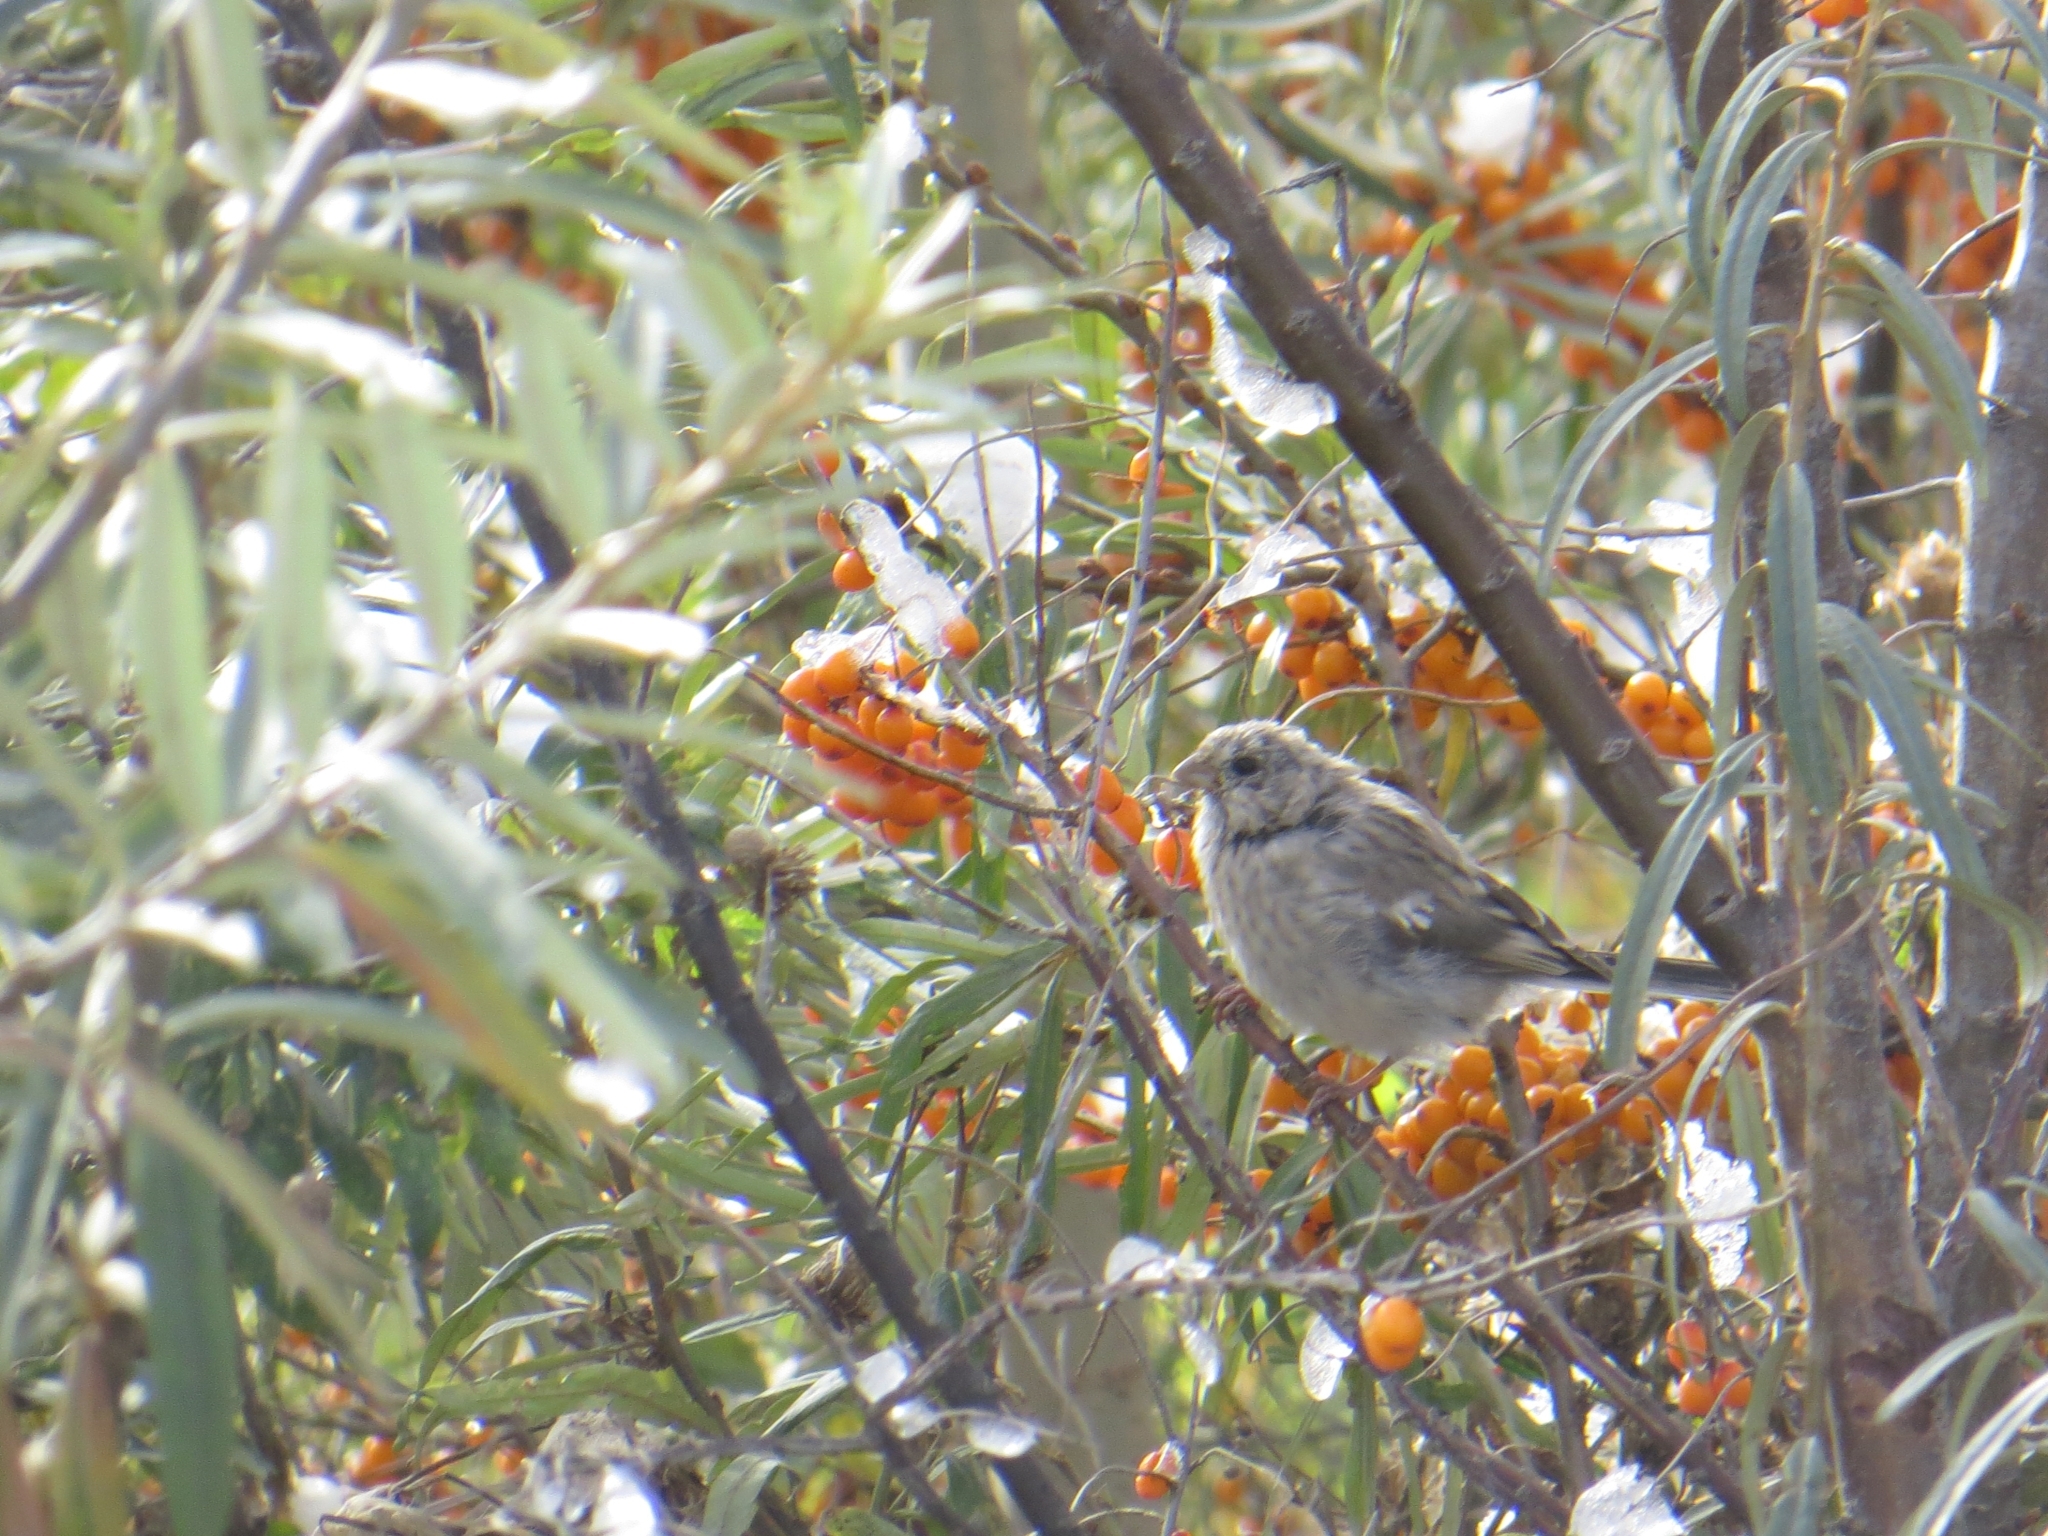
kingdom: Animalia
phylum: Chordata
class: Aves
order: Passeriformes
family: Fringillidae
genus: Carpodacus
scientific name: Carpodacus sibiricus
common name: Long-tailed rosefinch
